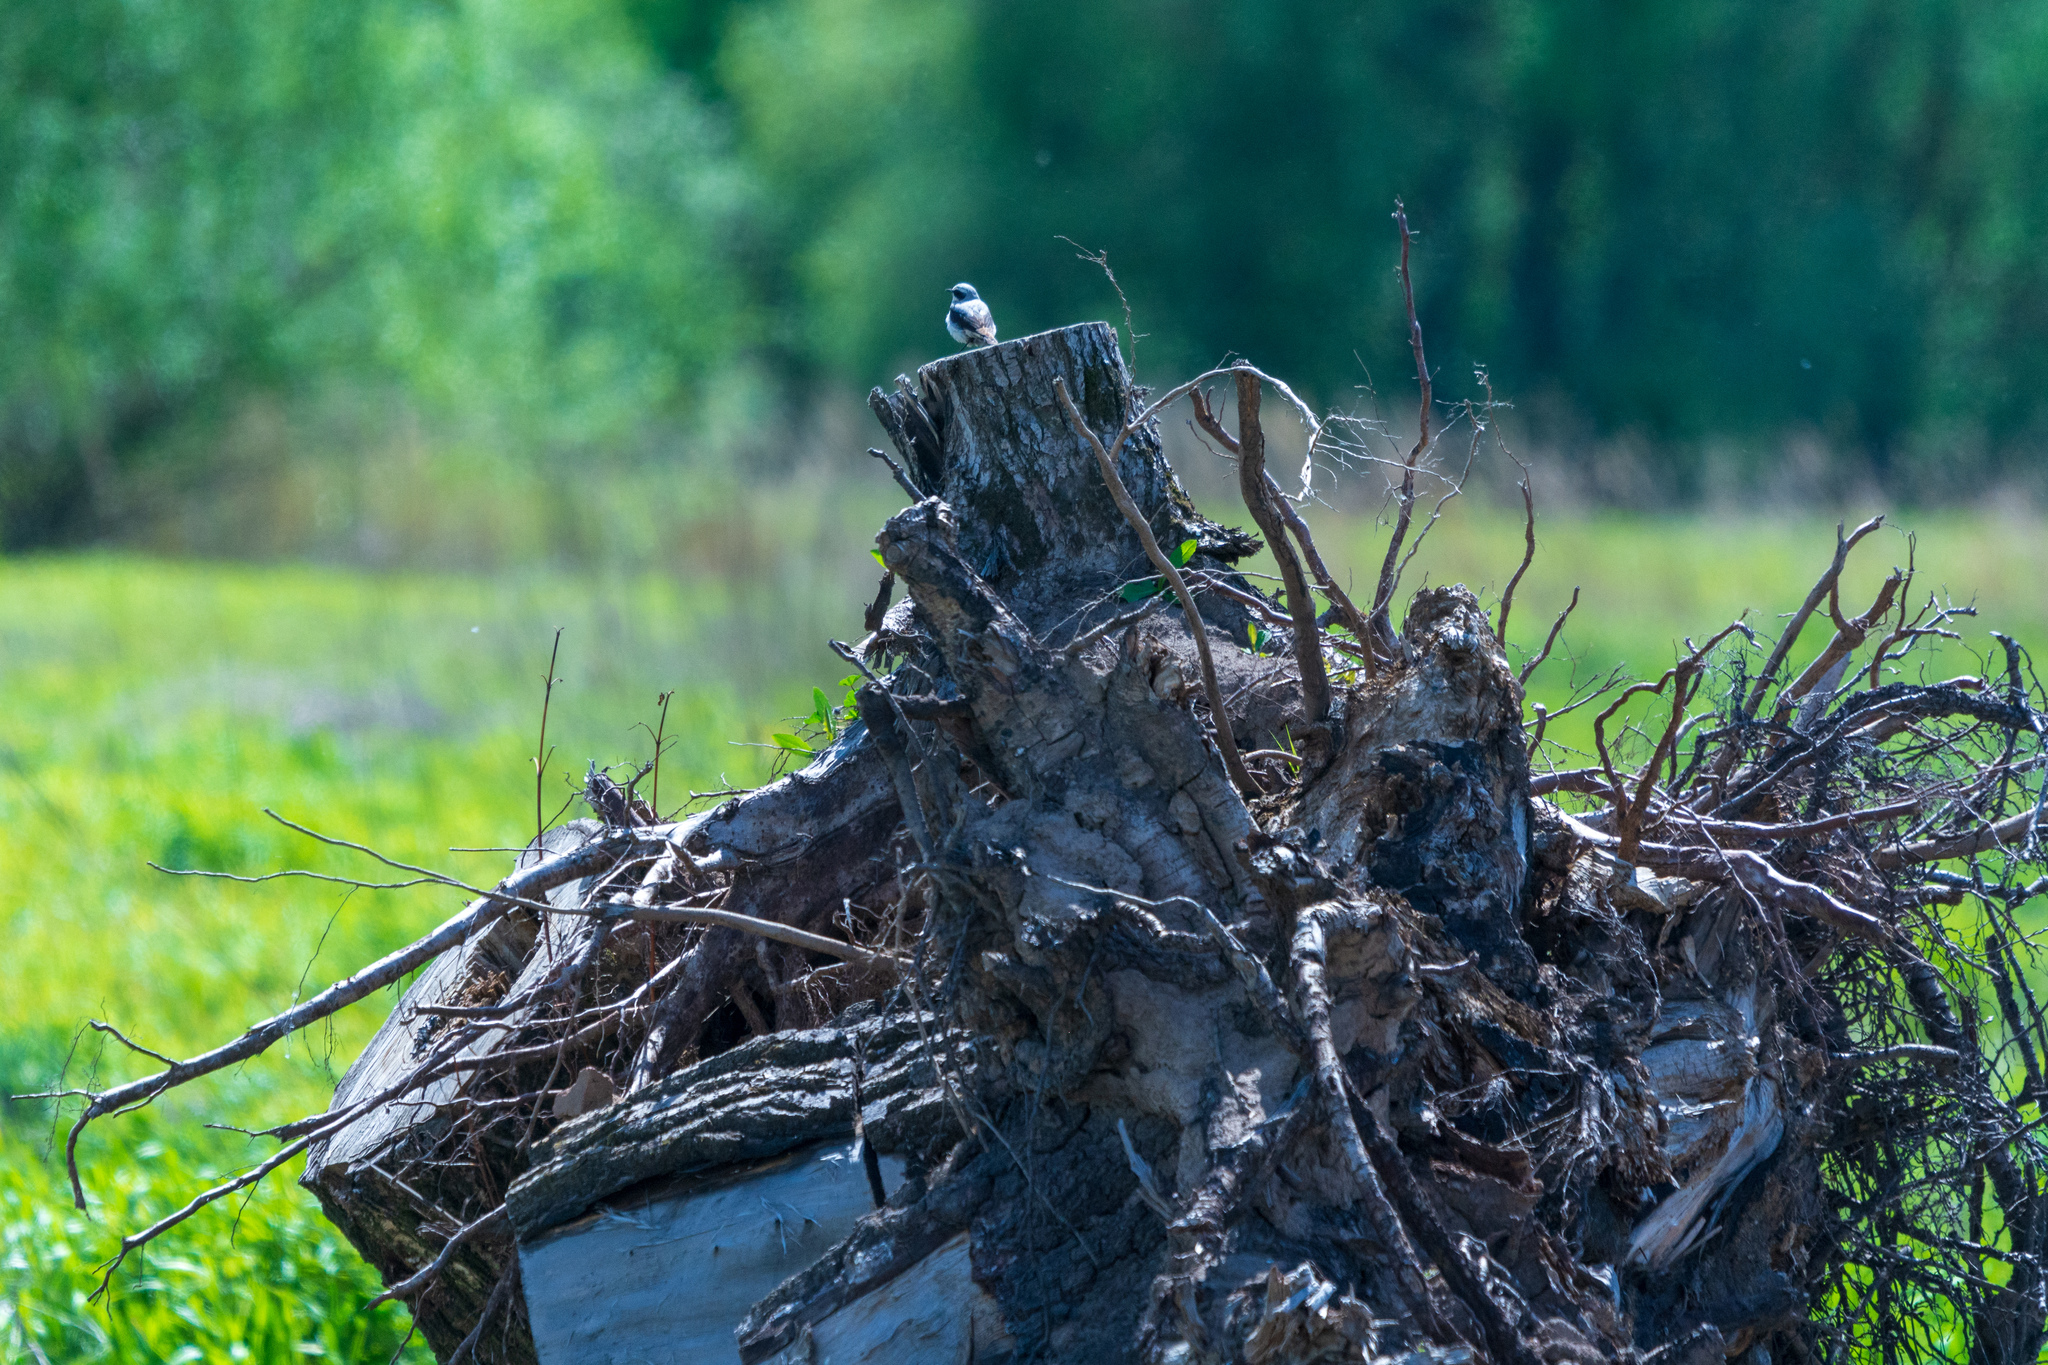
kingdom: Animalia
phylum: Chordata
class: Aves
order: Passeriformes
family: Muscicapidae
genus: Oenanthe
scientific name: Oenanthe oenanthe
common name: Northern wheatear
